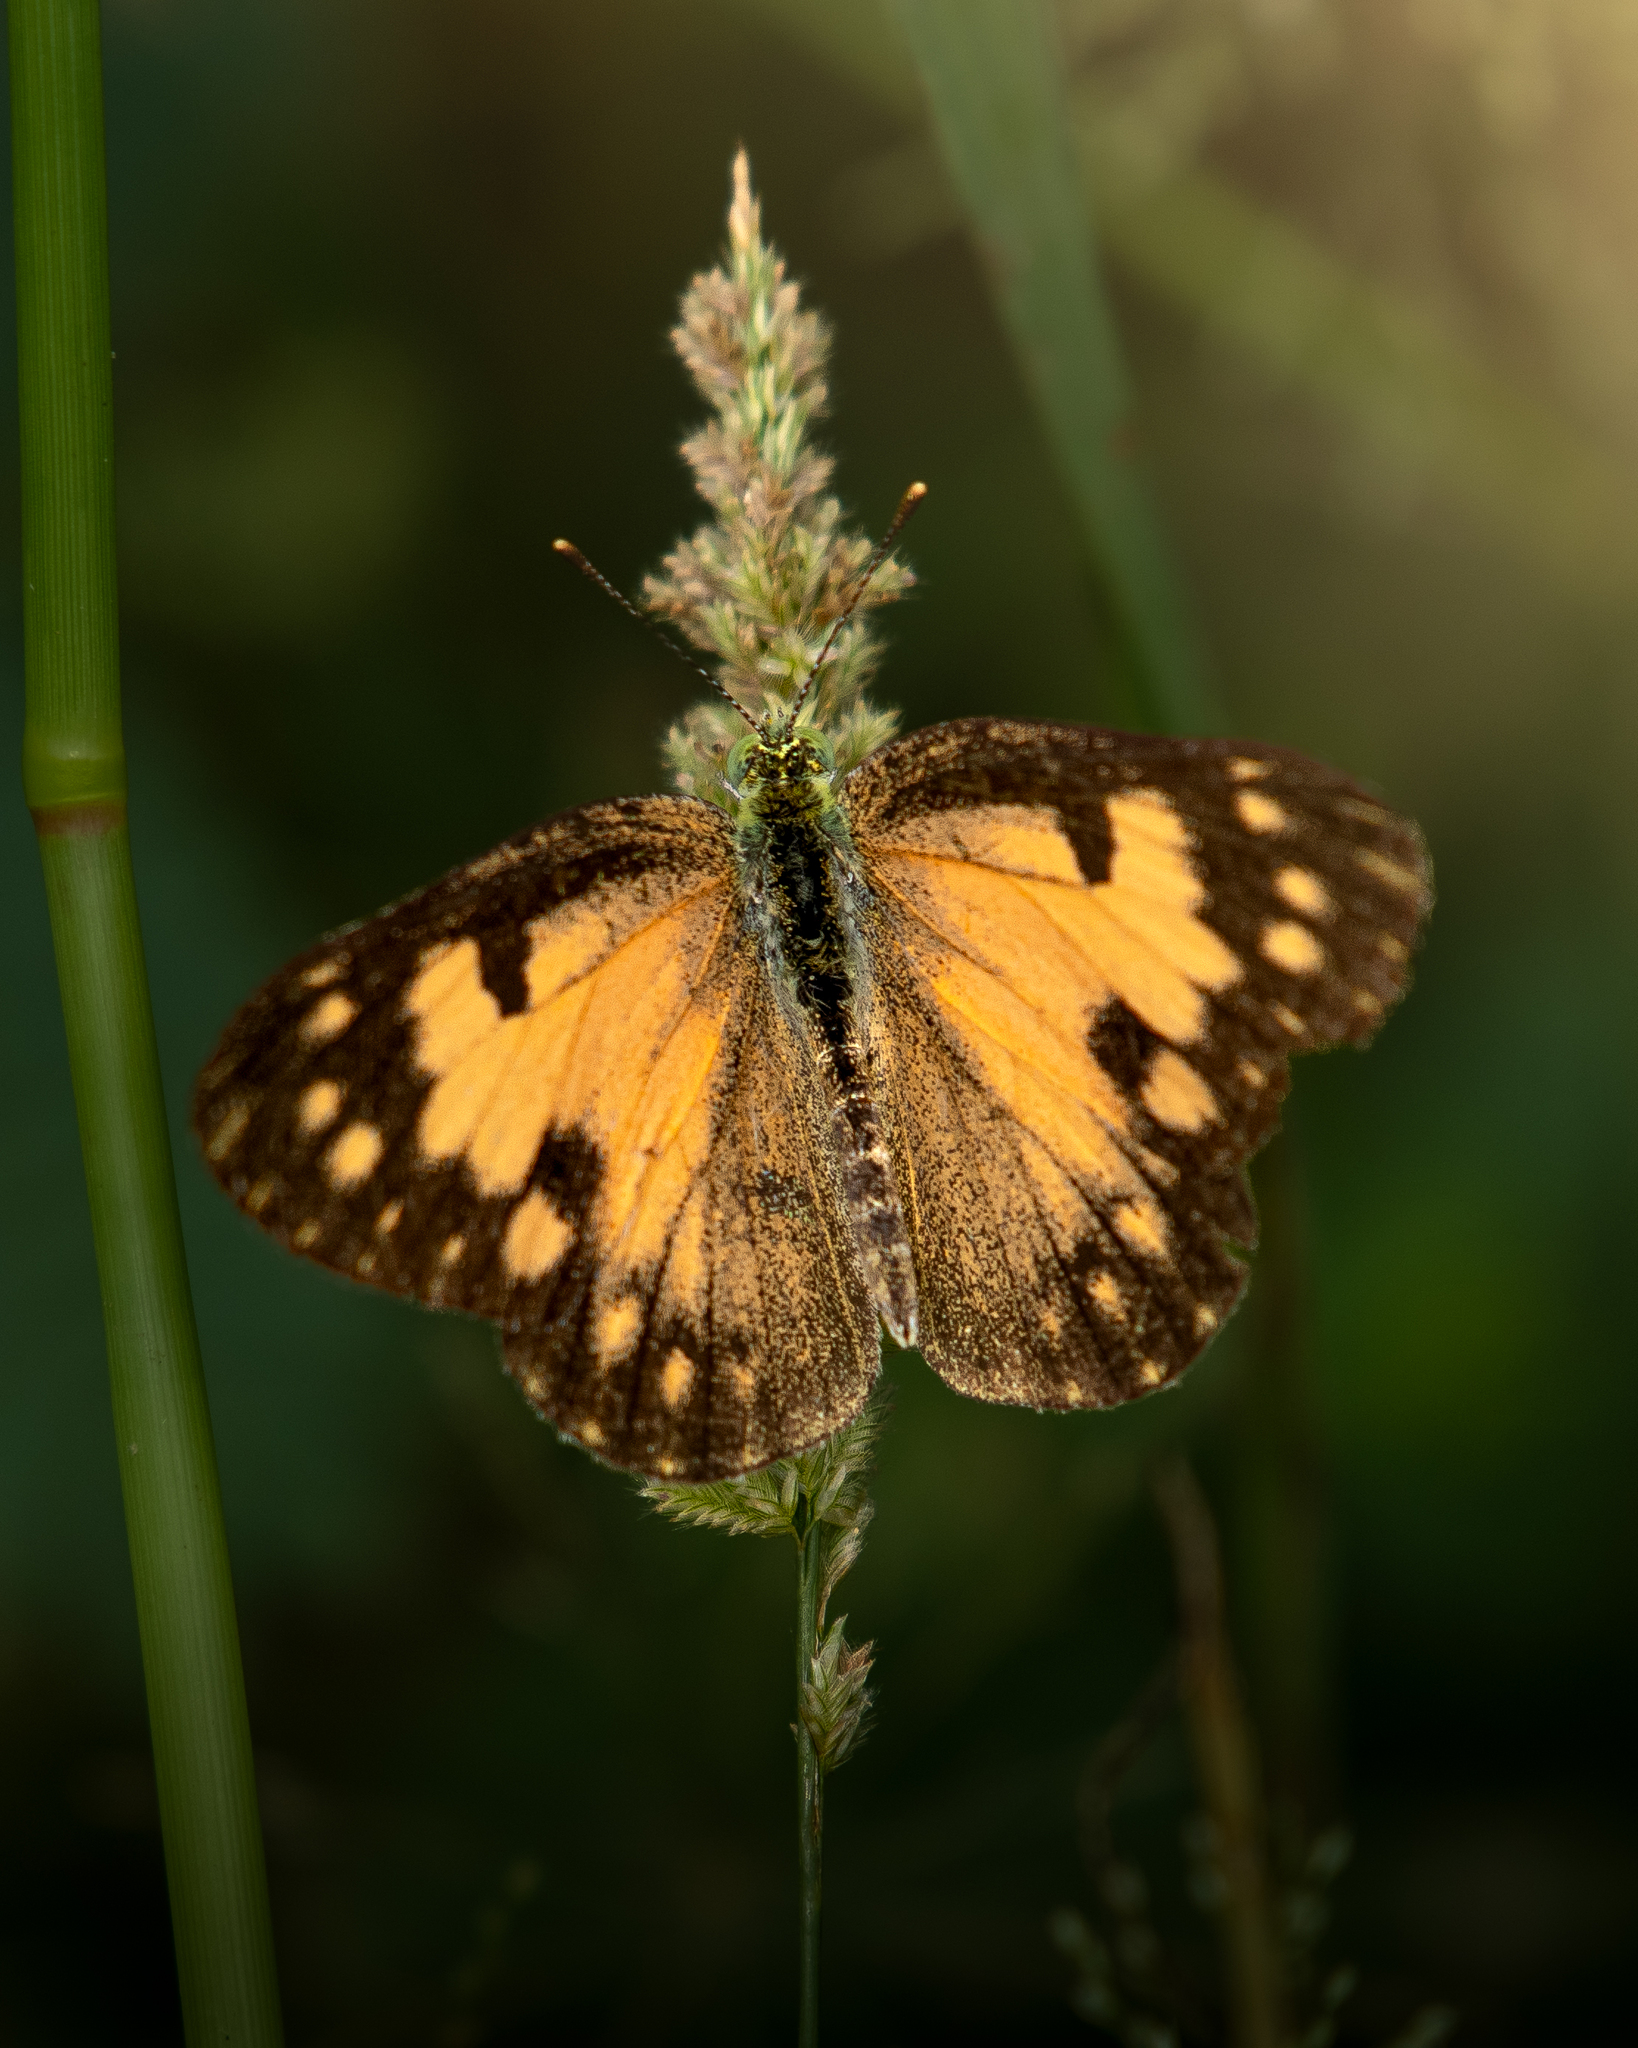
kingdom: Animalia
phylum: Arthropoda
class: Insecta
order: Lepidoptera
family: Pieridae
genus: Colotis
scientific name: Colotis amata
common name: Small salmon arab
